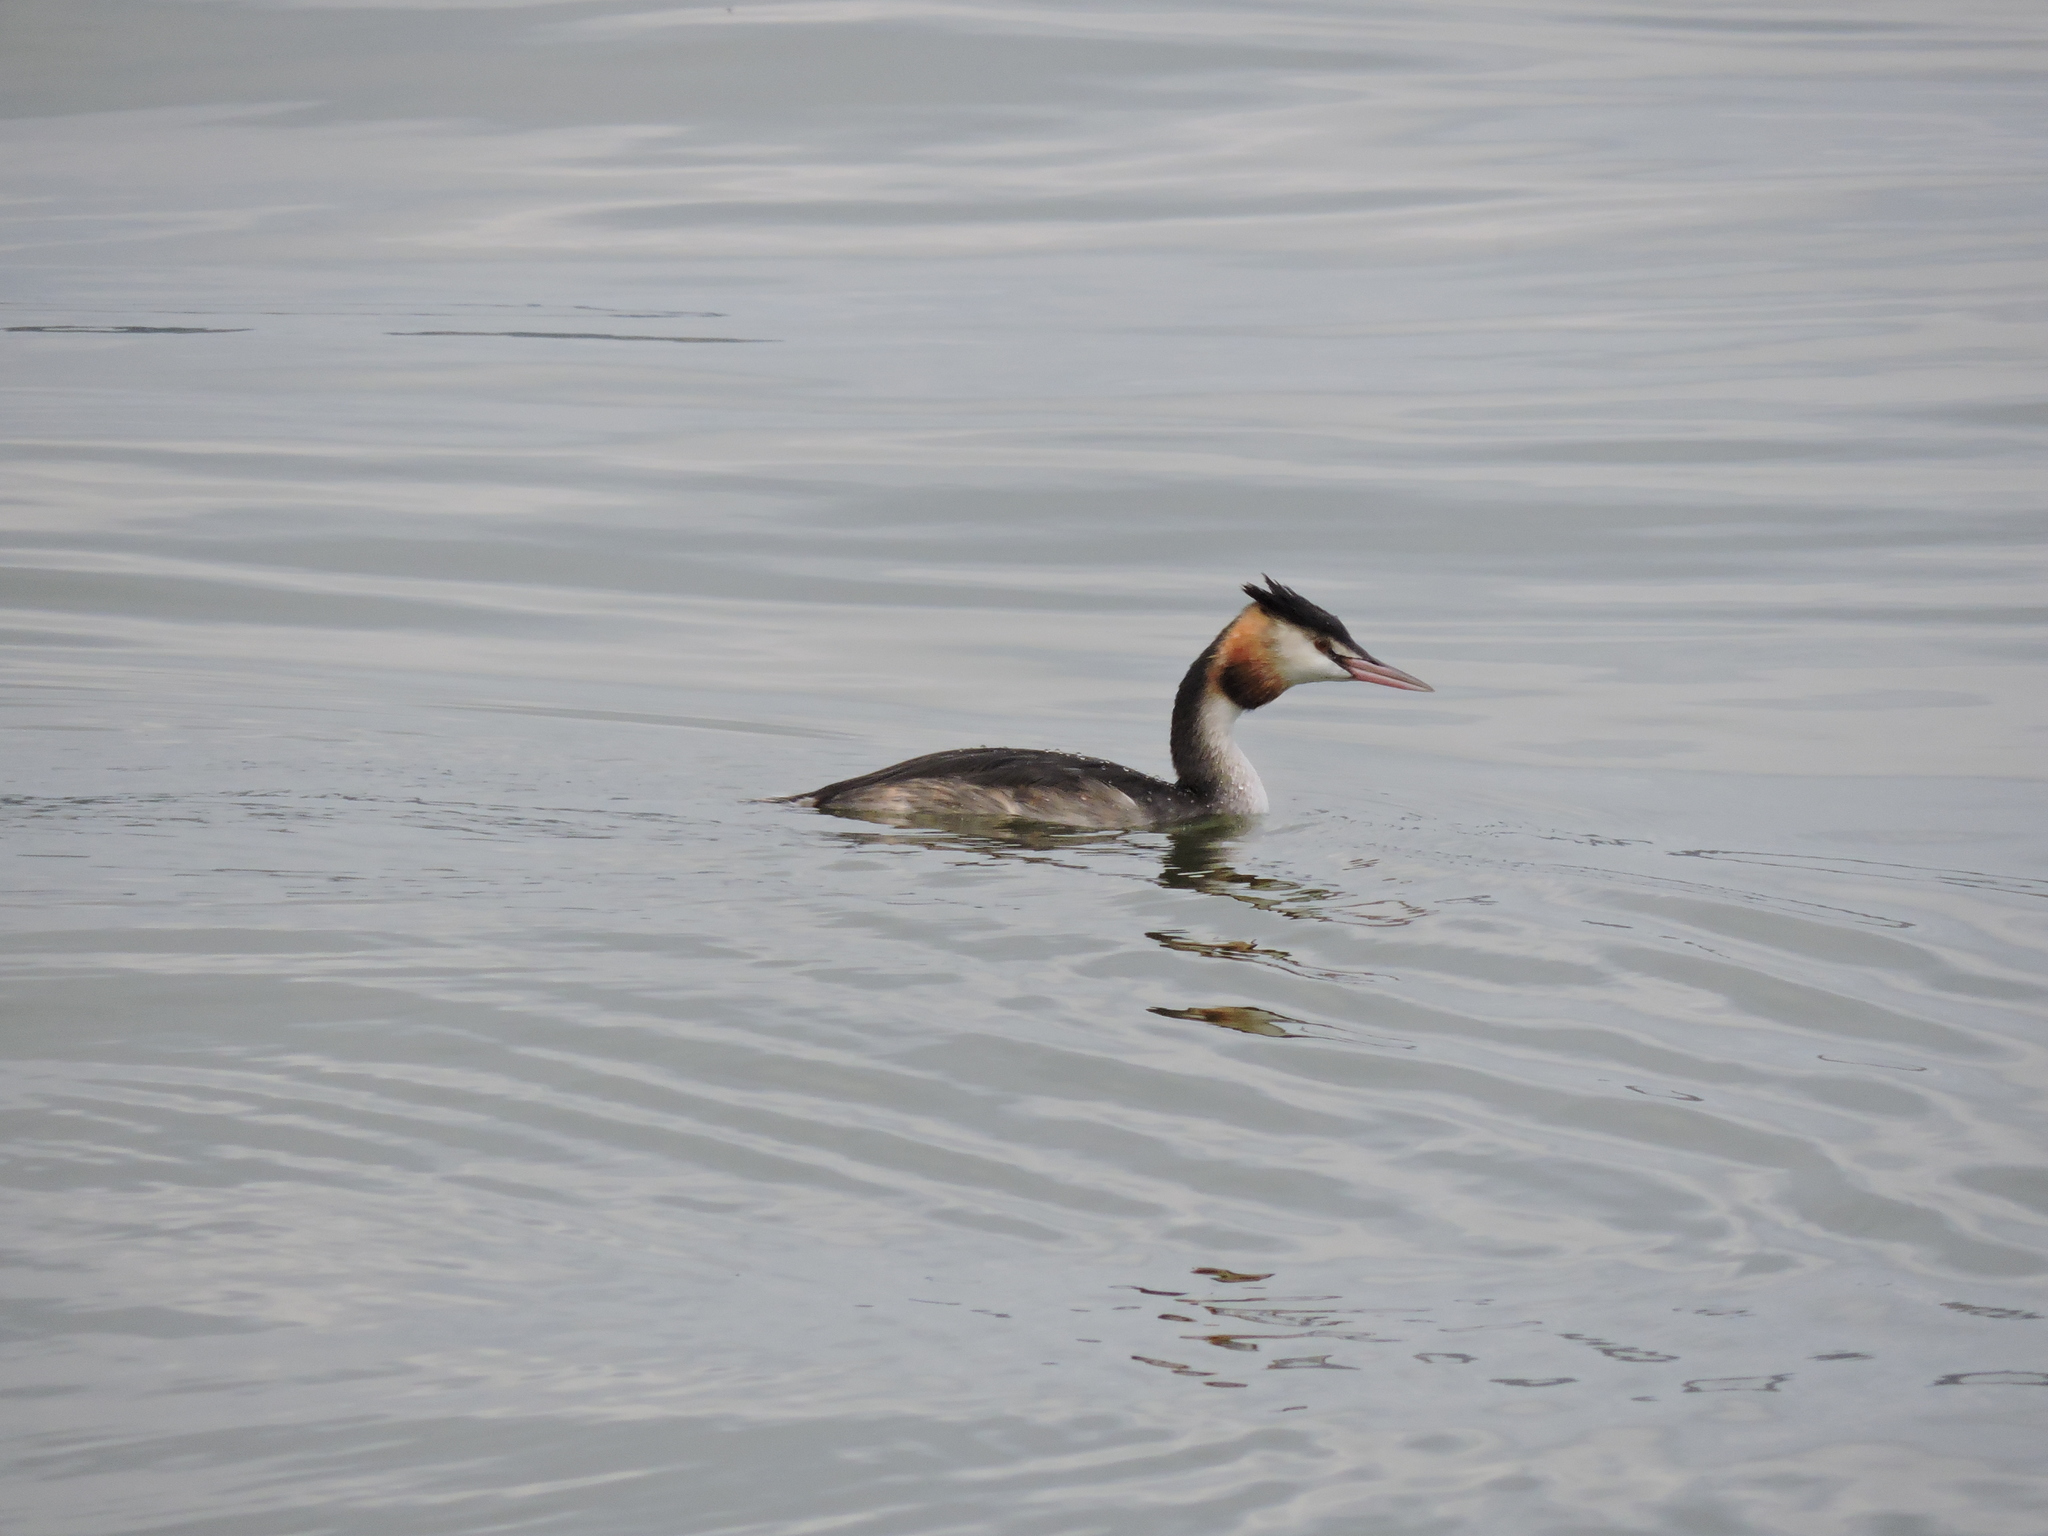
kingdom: Animalia
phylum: Chordata
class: Aves
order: Podicipediformes
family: Podicipedidae
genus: Podiceps
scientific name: Podiceps cristatus
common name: Great crested grebe
